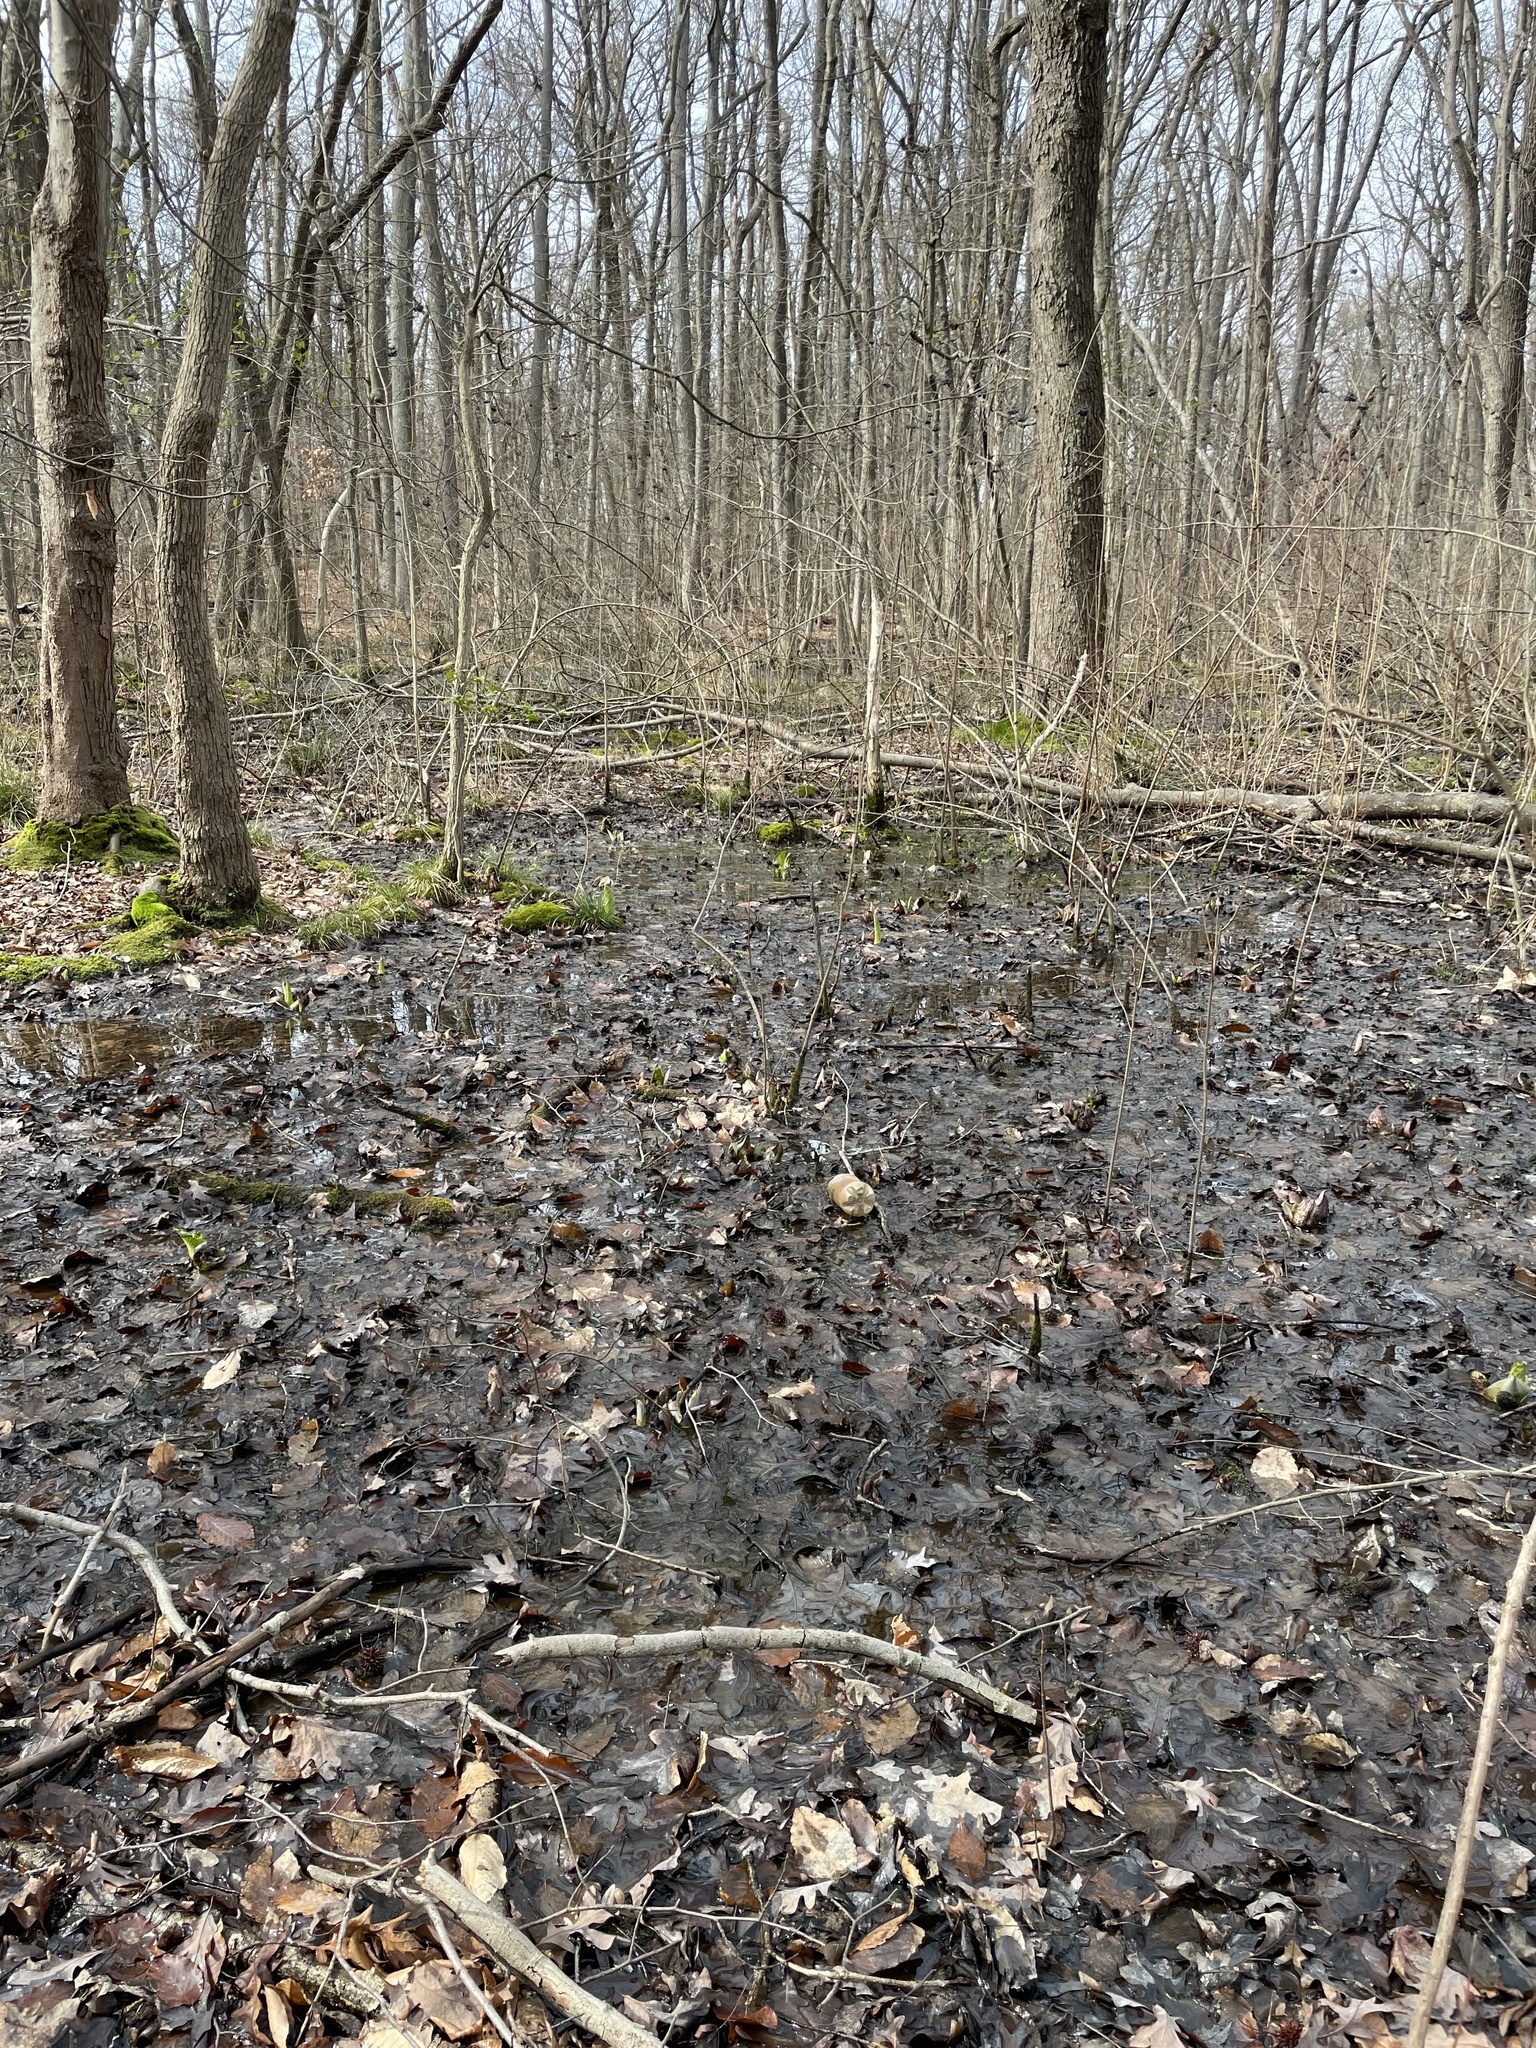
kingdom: Plantae
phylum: Tracheophyta
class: Liliopsida
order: Alismatales
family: Araceae
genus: Symplocarpus
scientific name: Symplocarpus foetidus
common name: Eastern skunk cabbage
